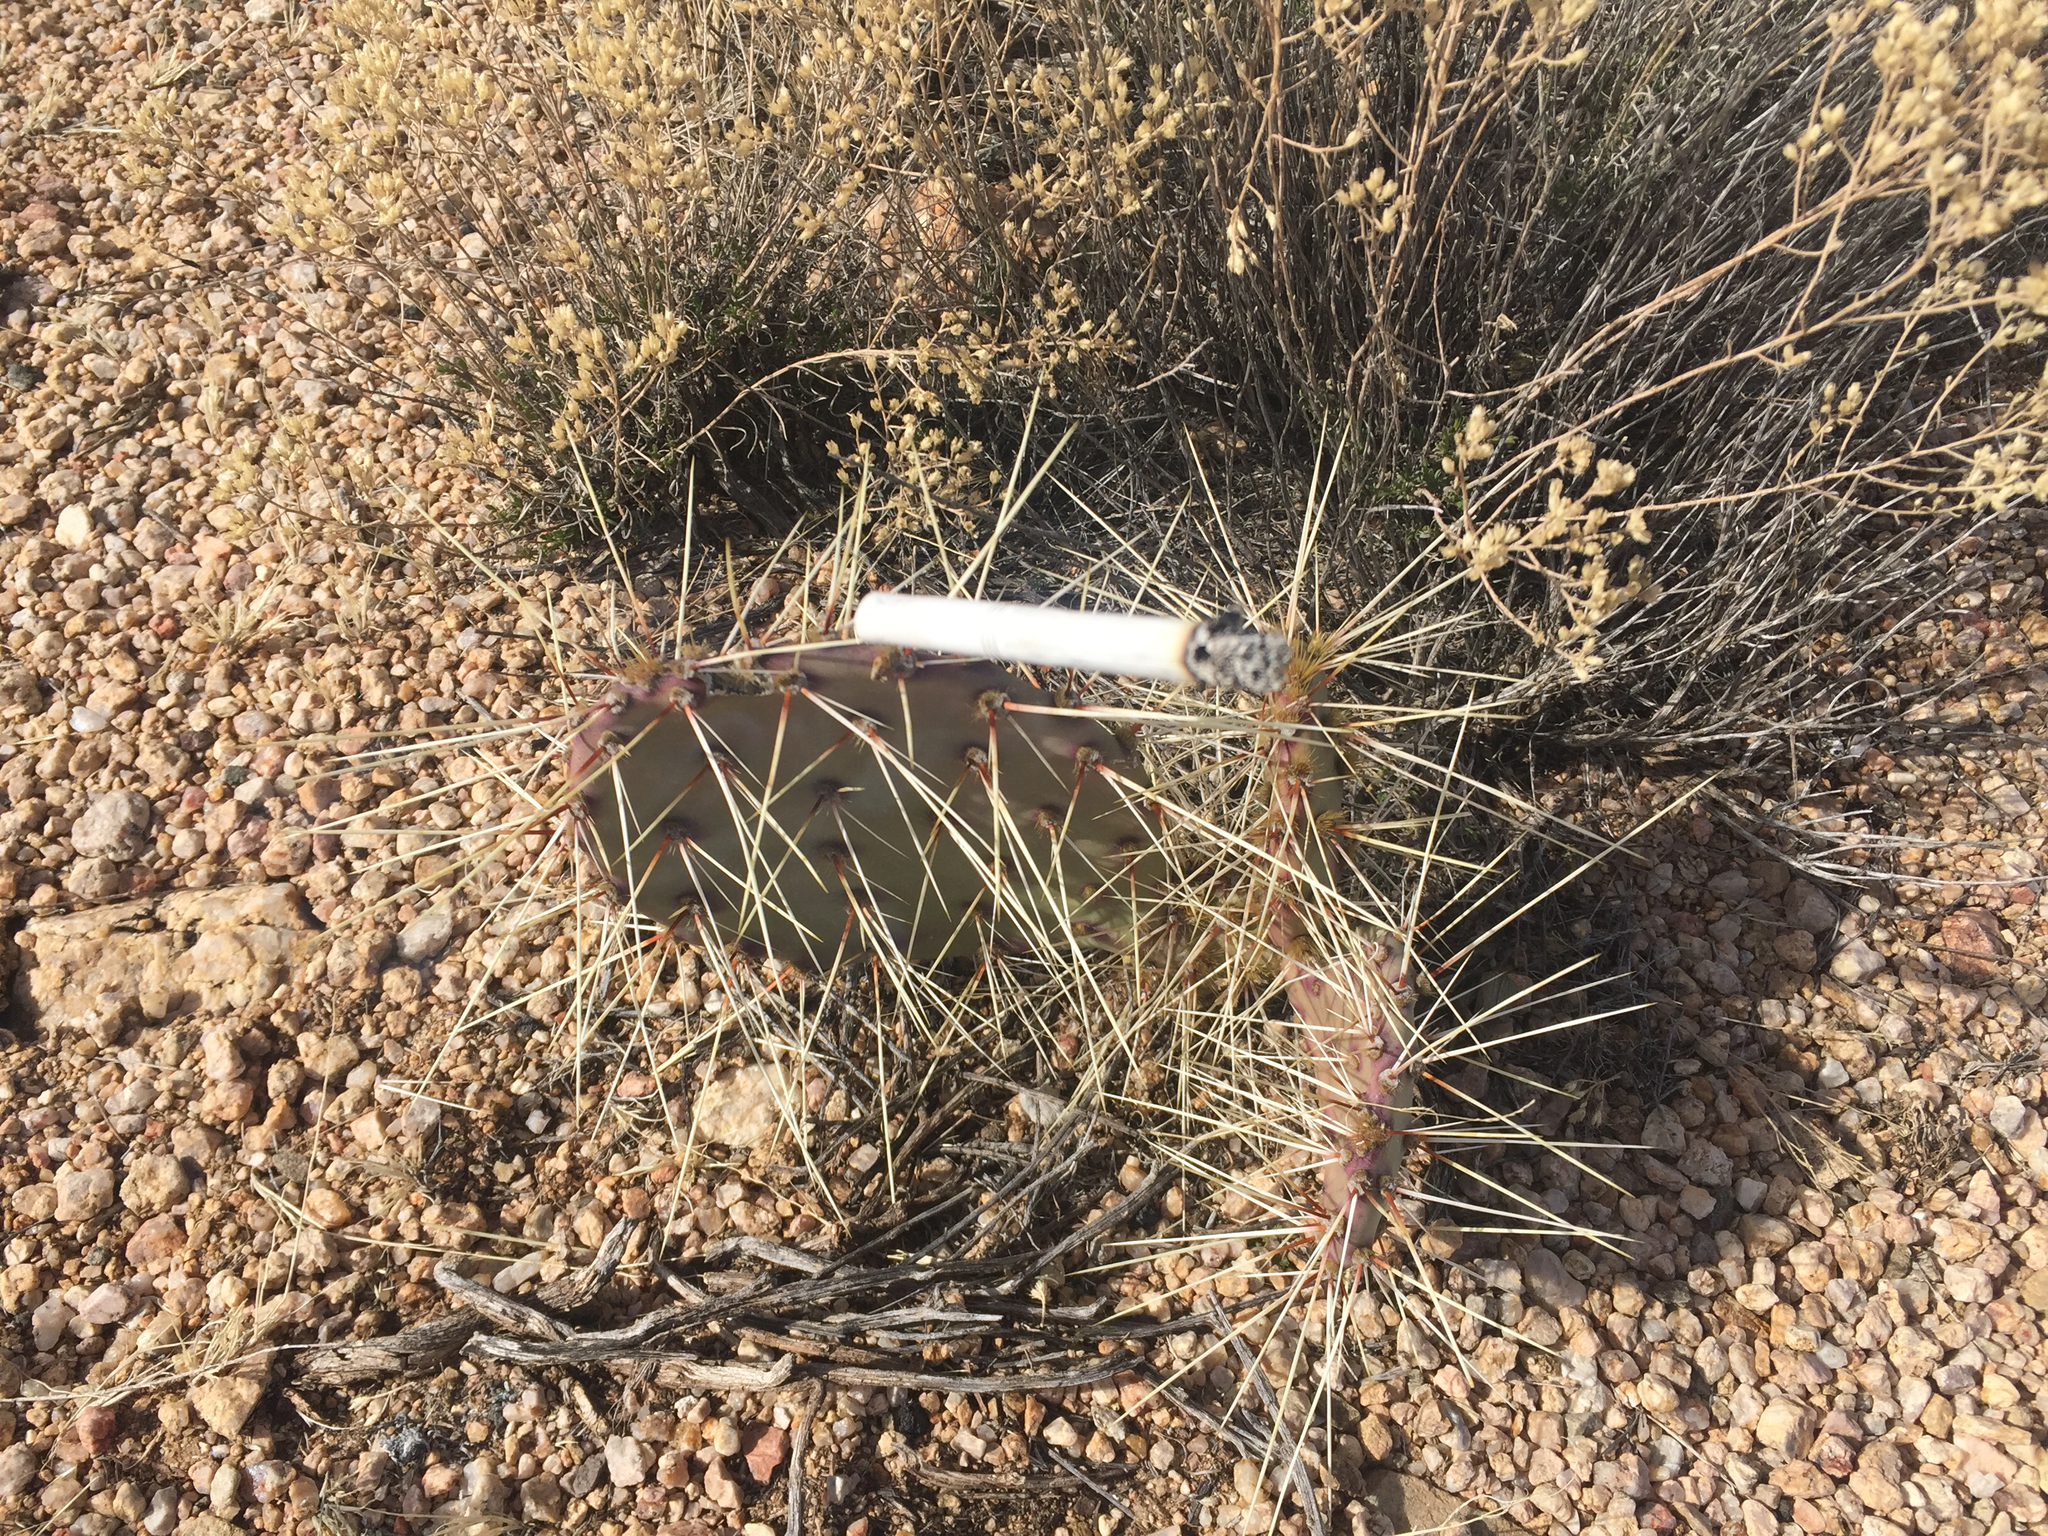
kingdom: Plantae
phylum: Tracheophyta
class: Magnoliopsida
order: Caryophyllales
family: Cactaceae
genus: Opuntia
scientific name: Opuntia polyacantha
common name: Plains prickly-pear
